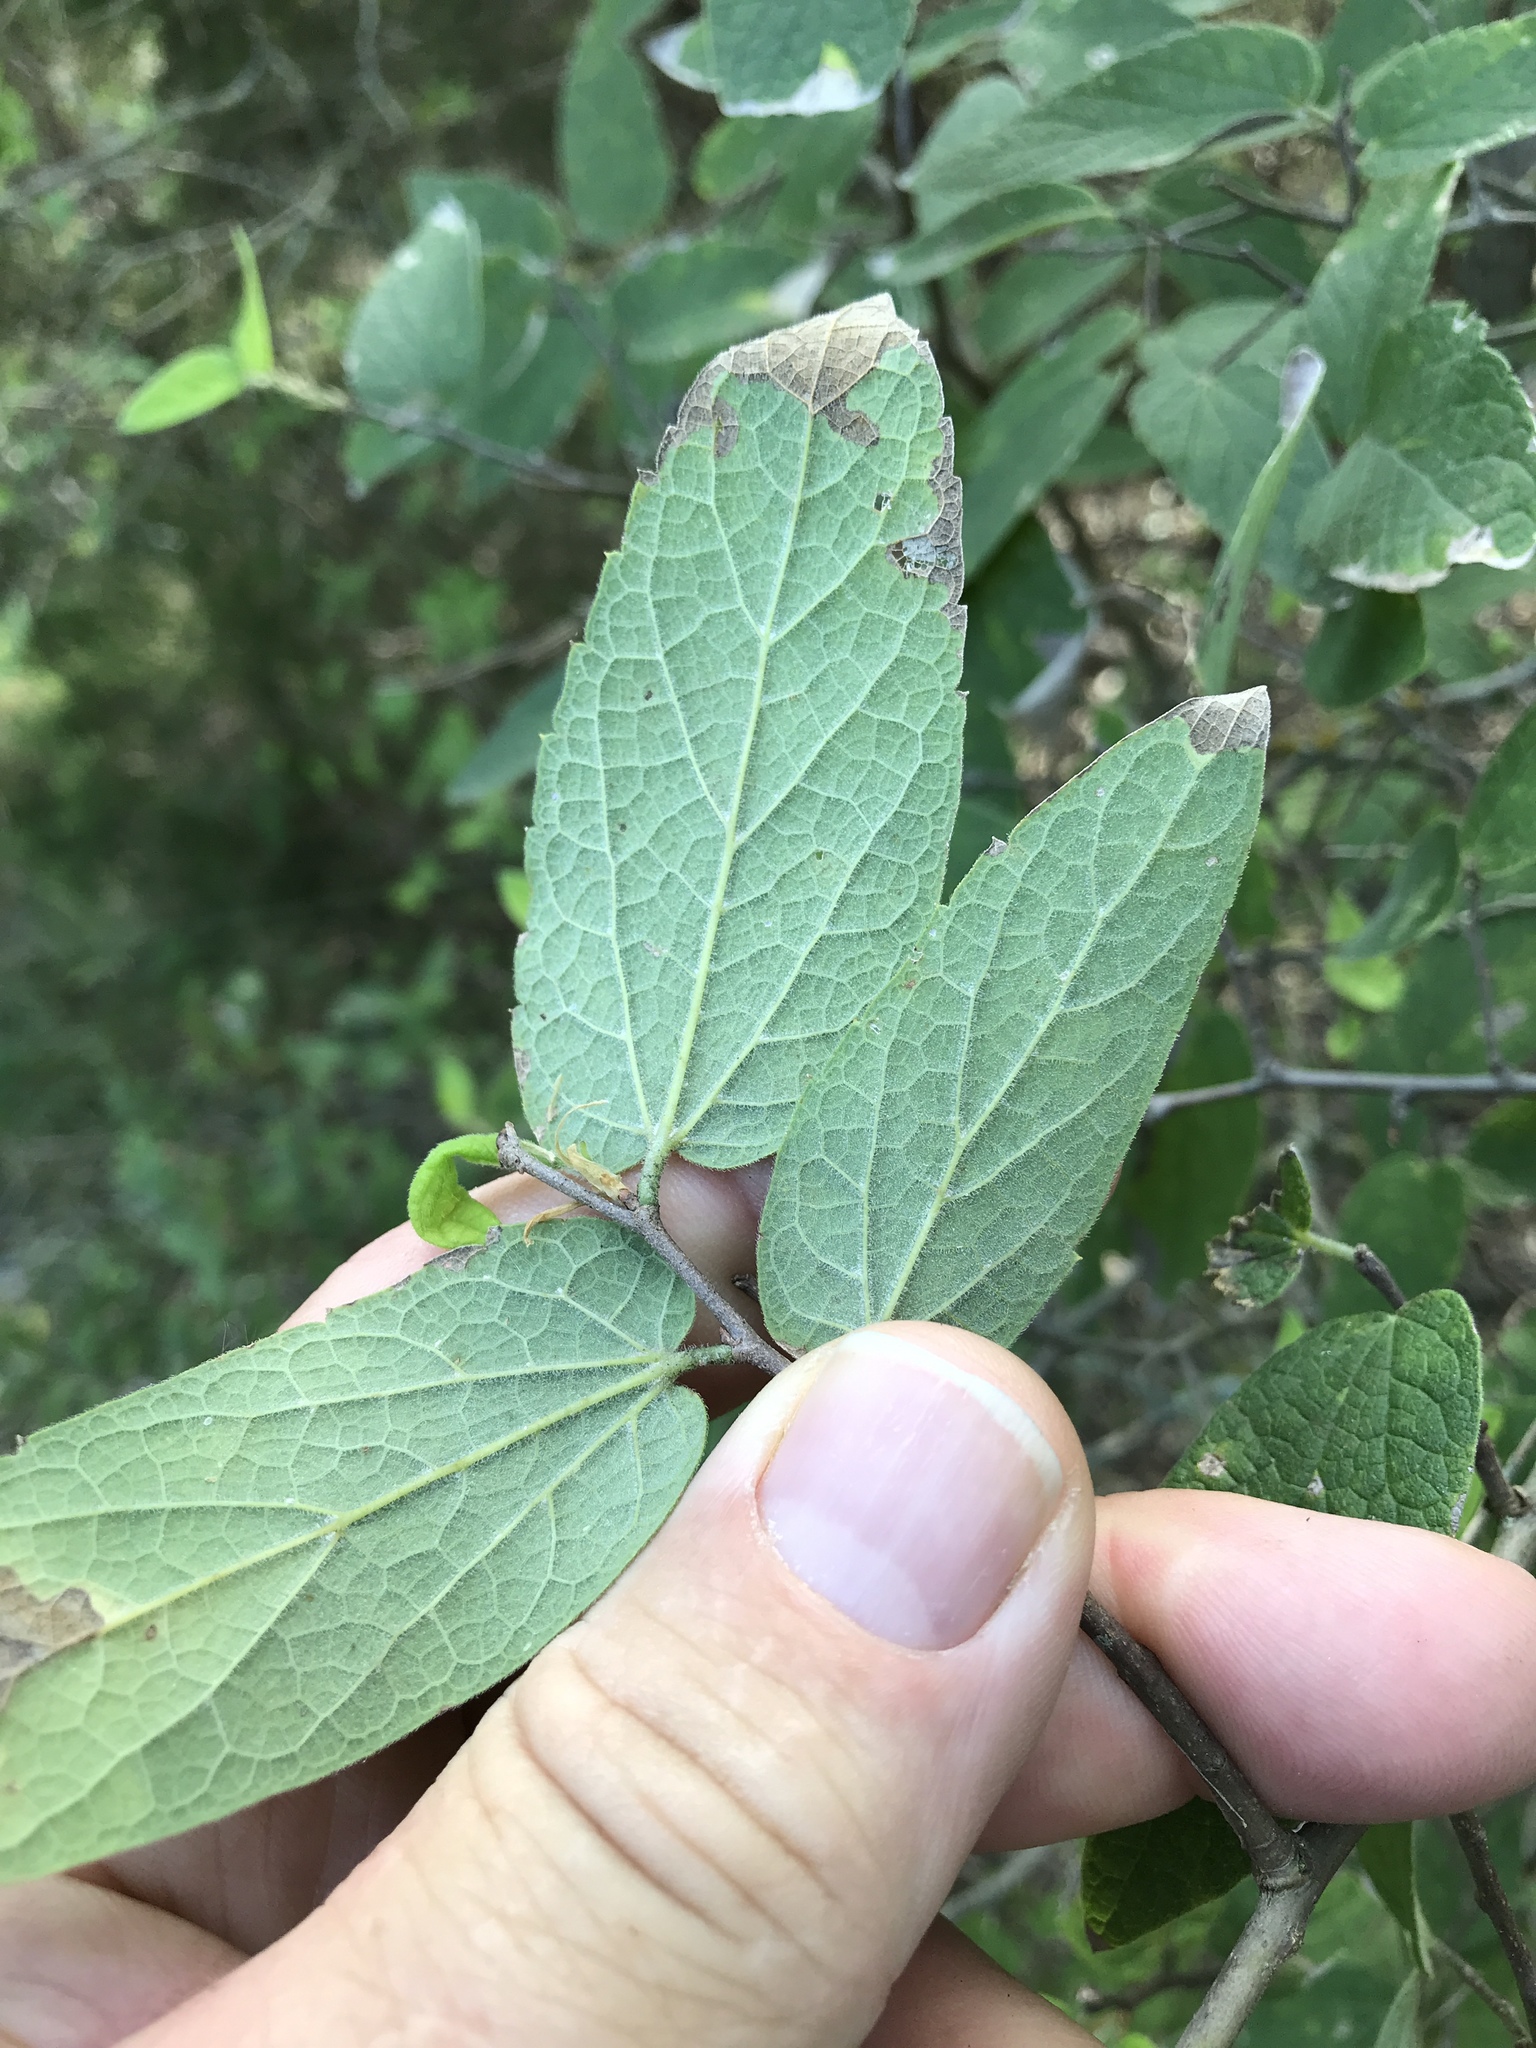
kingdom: Plantae
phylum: Tracheophyta
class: Magnoliopsida
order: Rosales
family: Cannabaceae
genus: Celtis
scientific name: Celtis reticulata
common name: Netleaf hackberry
